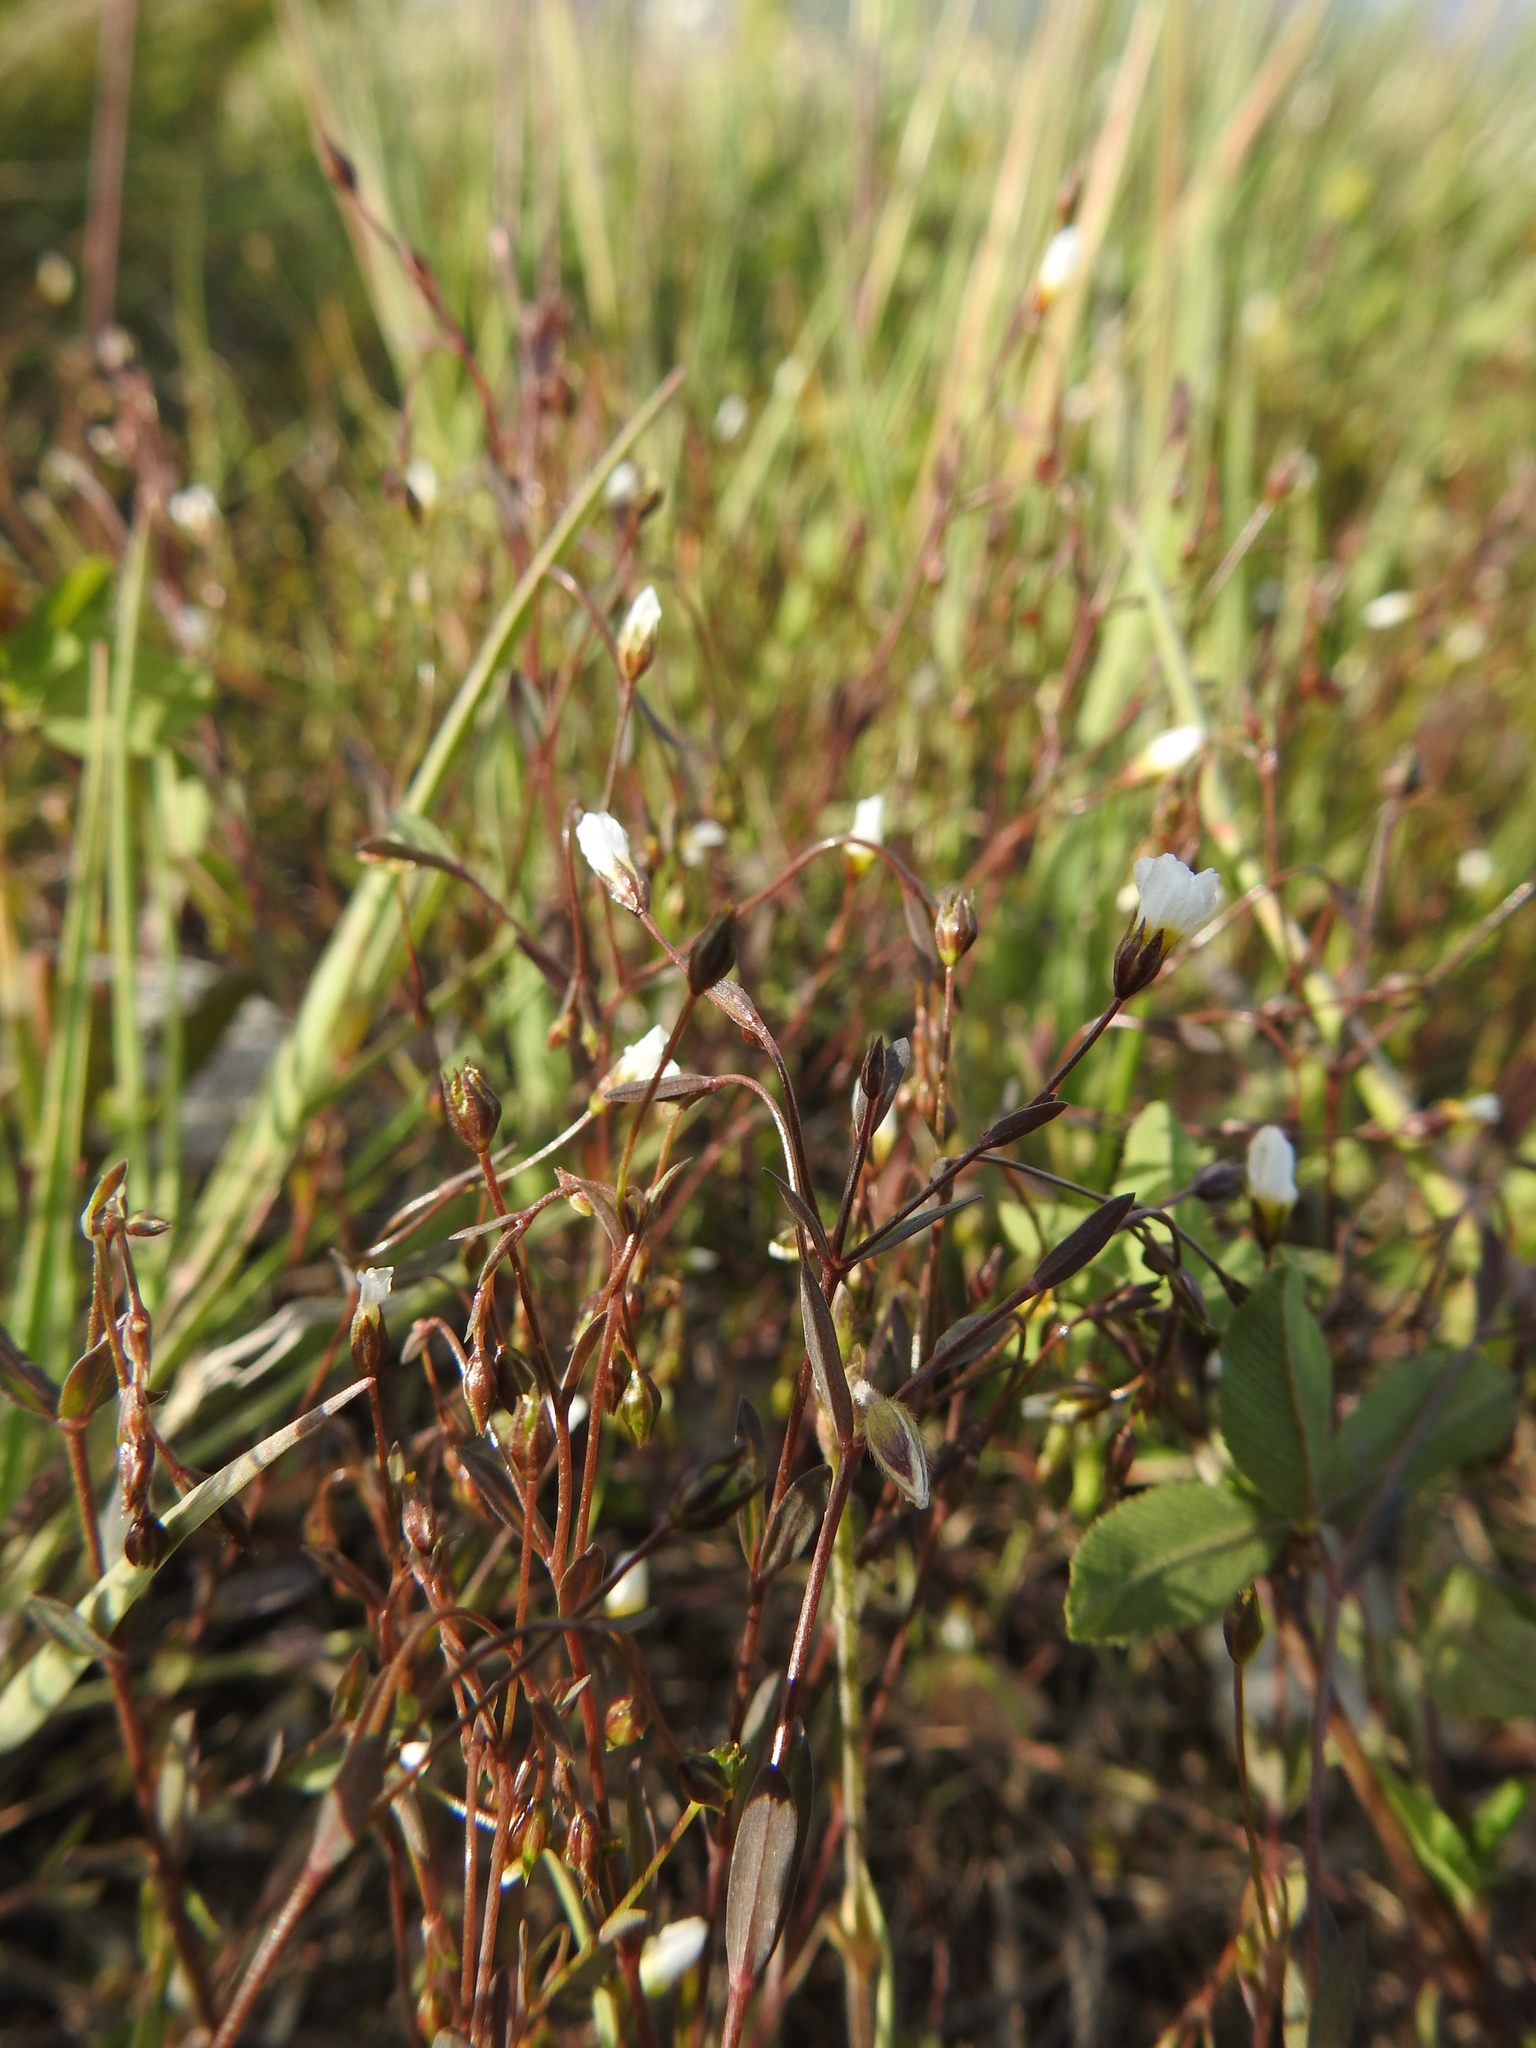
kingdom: Plantae
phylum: Tracheophyta
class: Magnoliopsida
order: Malpighiales
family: Linaceae
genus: Linum
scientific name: Linum catharticum
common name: Fairy flax
